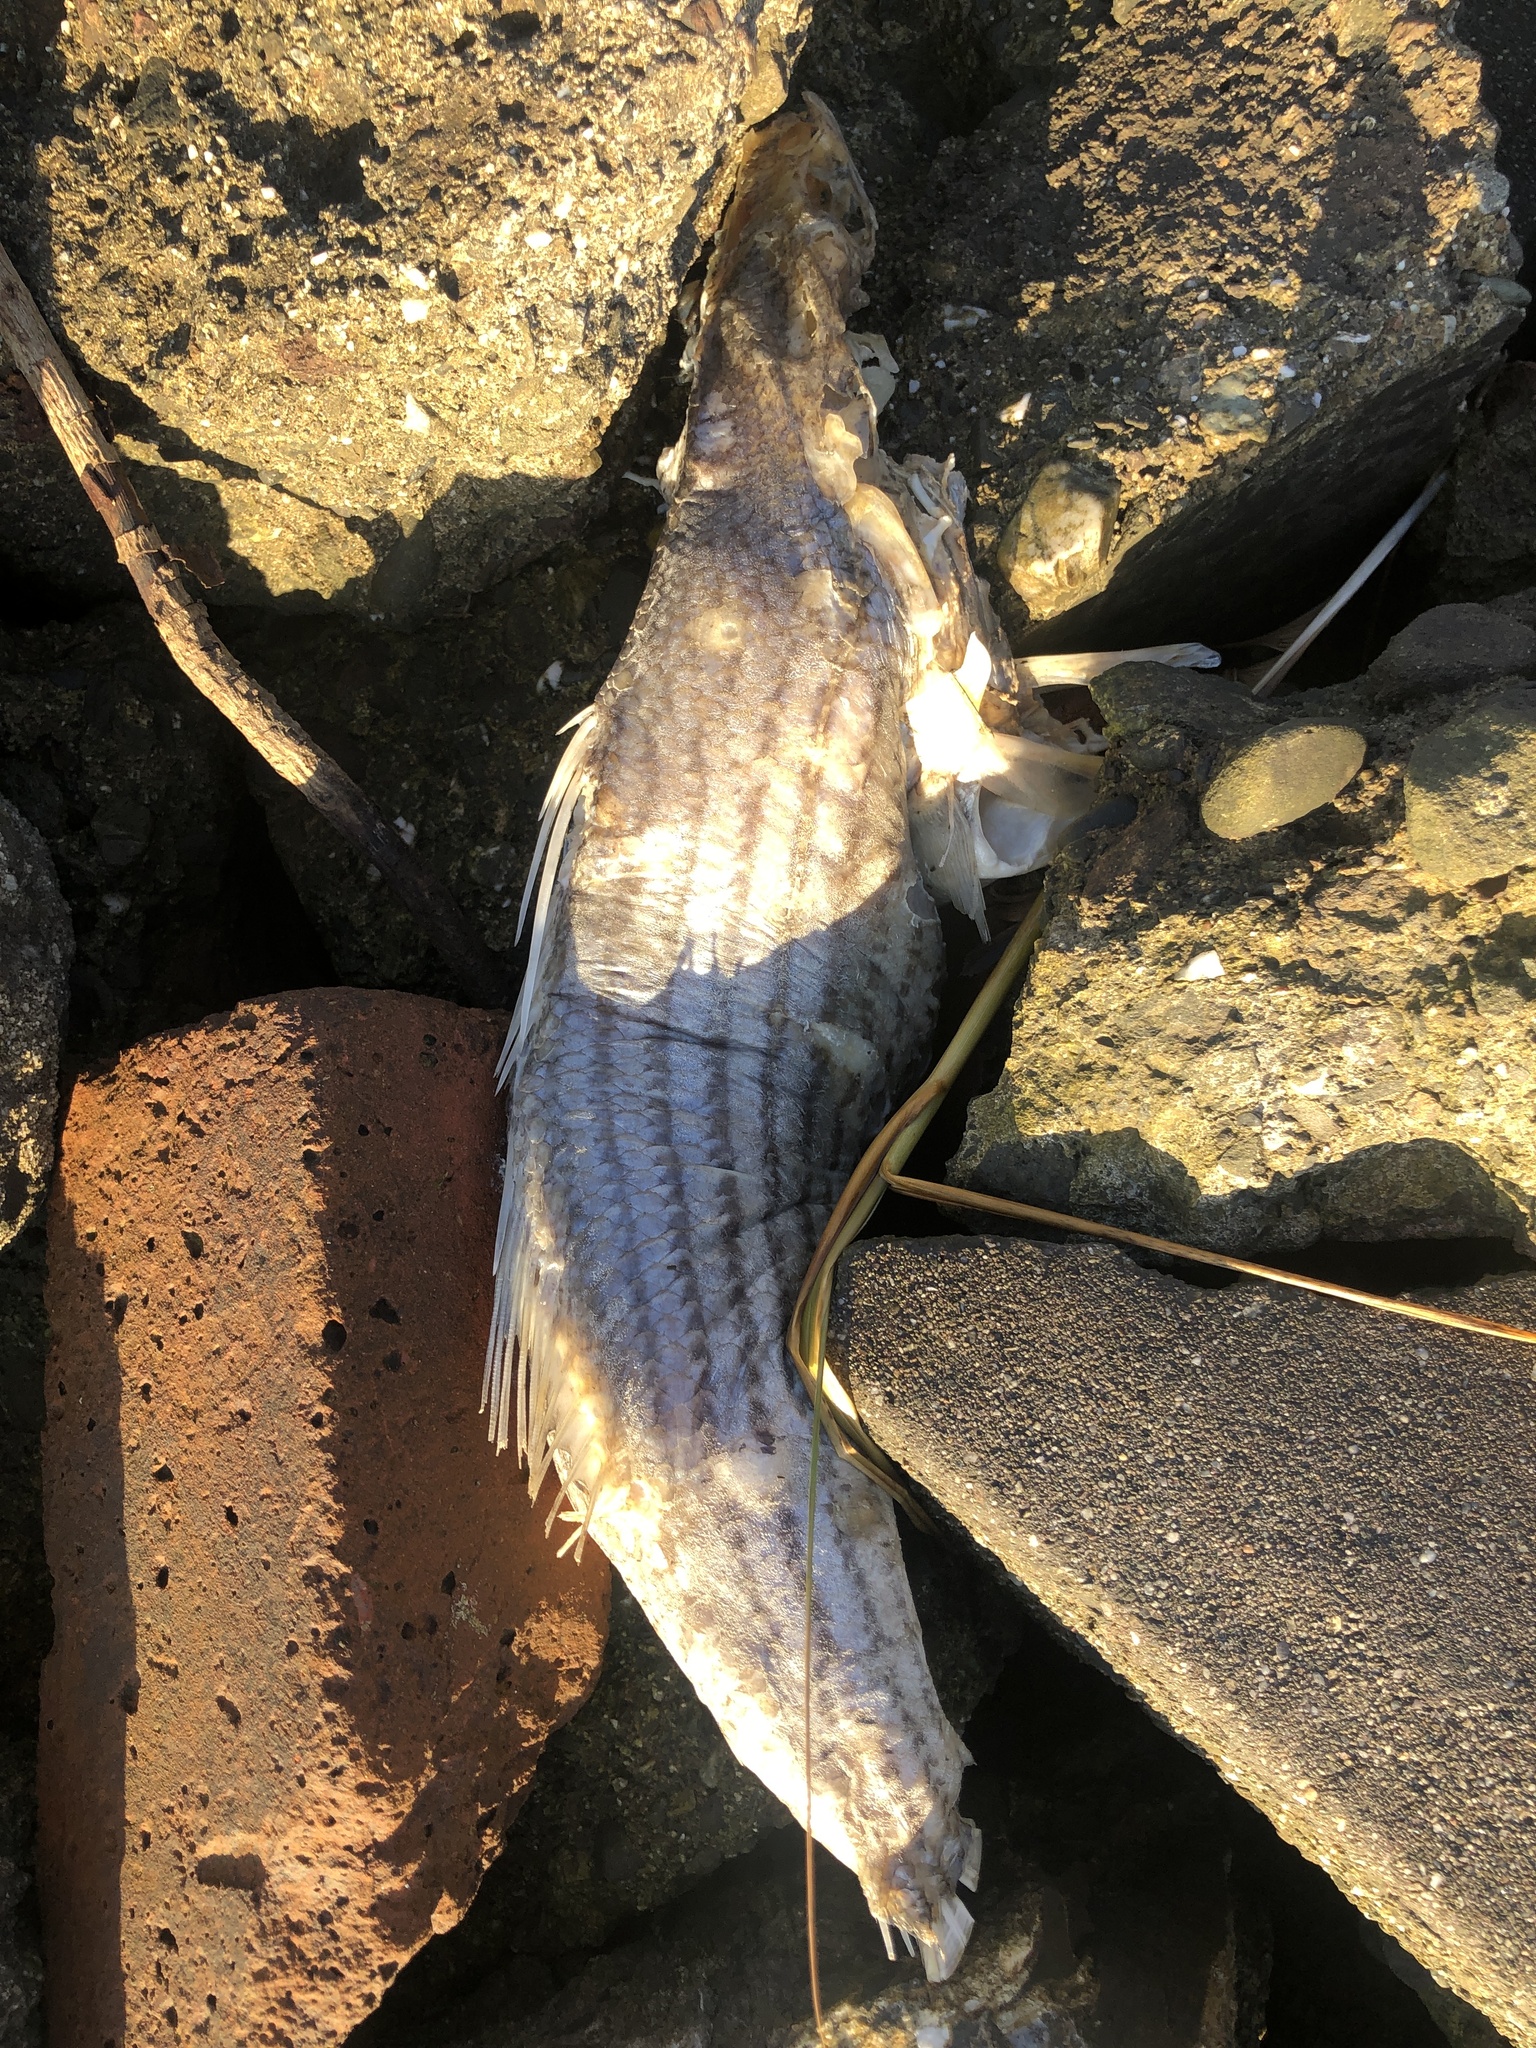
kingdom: Animalia
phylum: Chordata
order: Perciformes
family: Moronidae
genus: Morone
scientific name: Morone saxatilis
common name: Striped bass
